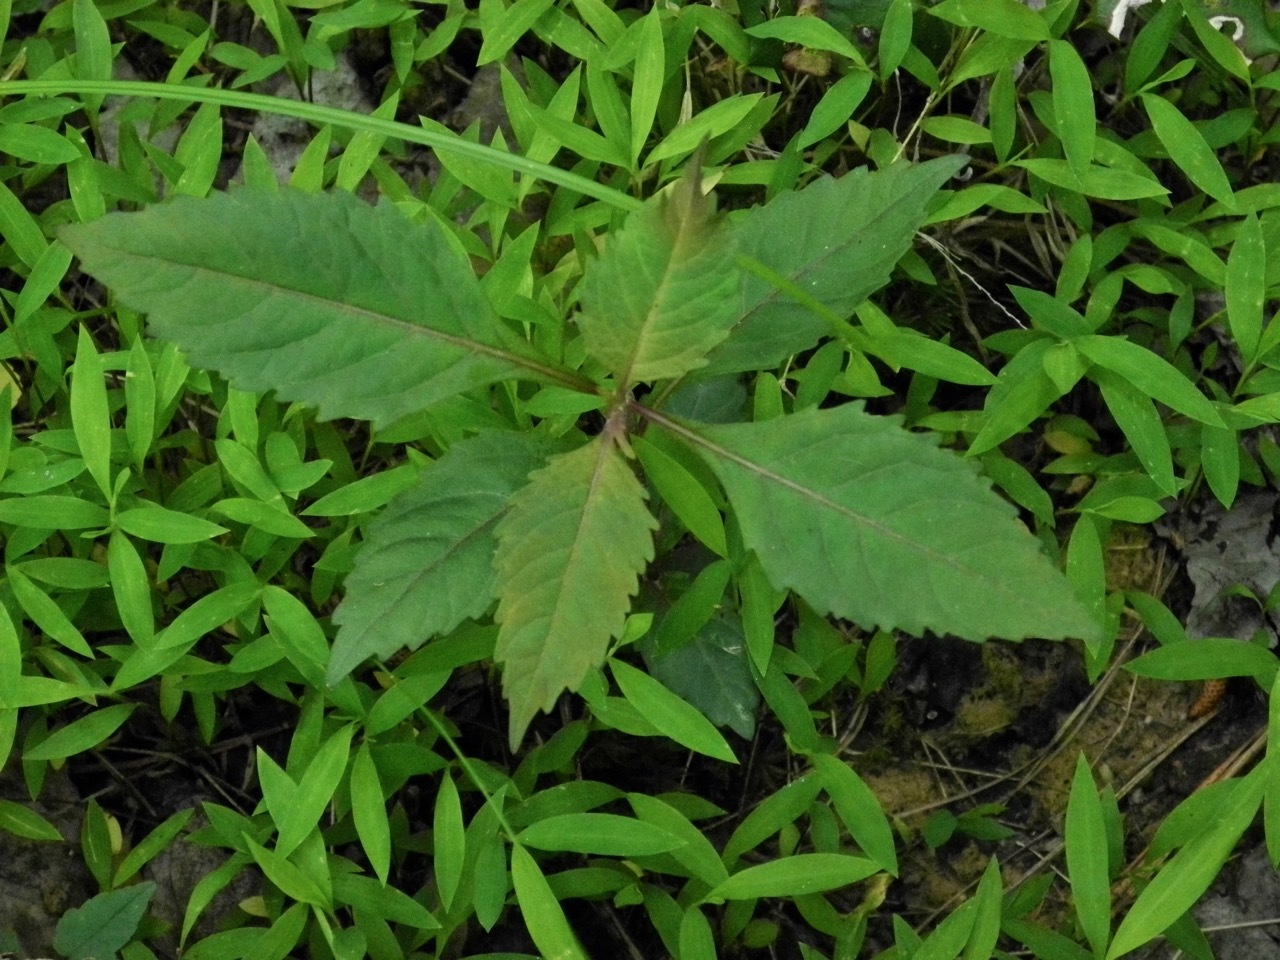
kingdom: Plantae
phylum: Tracheophyta
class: Magnoliopsida
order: Lamiales
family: Lamiaceae
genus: Lycopus
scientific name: Lycopus virginicus
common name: Bugleweed
